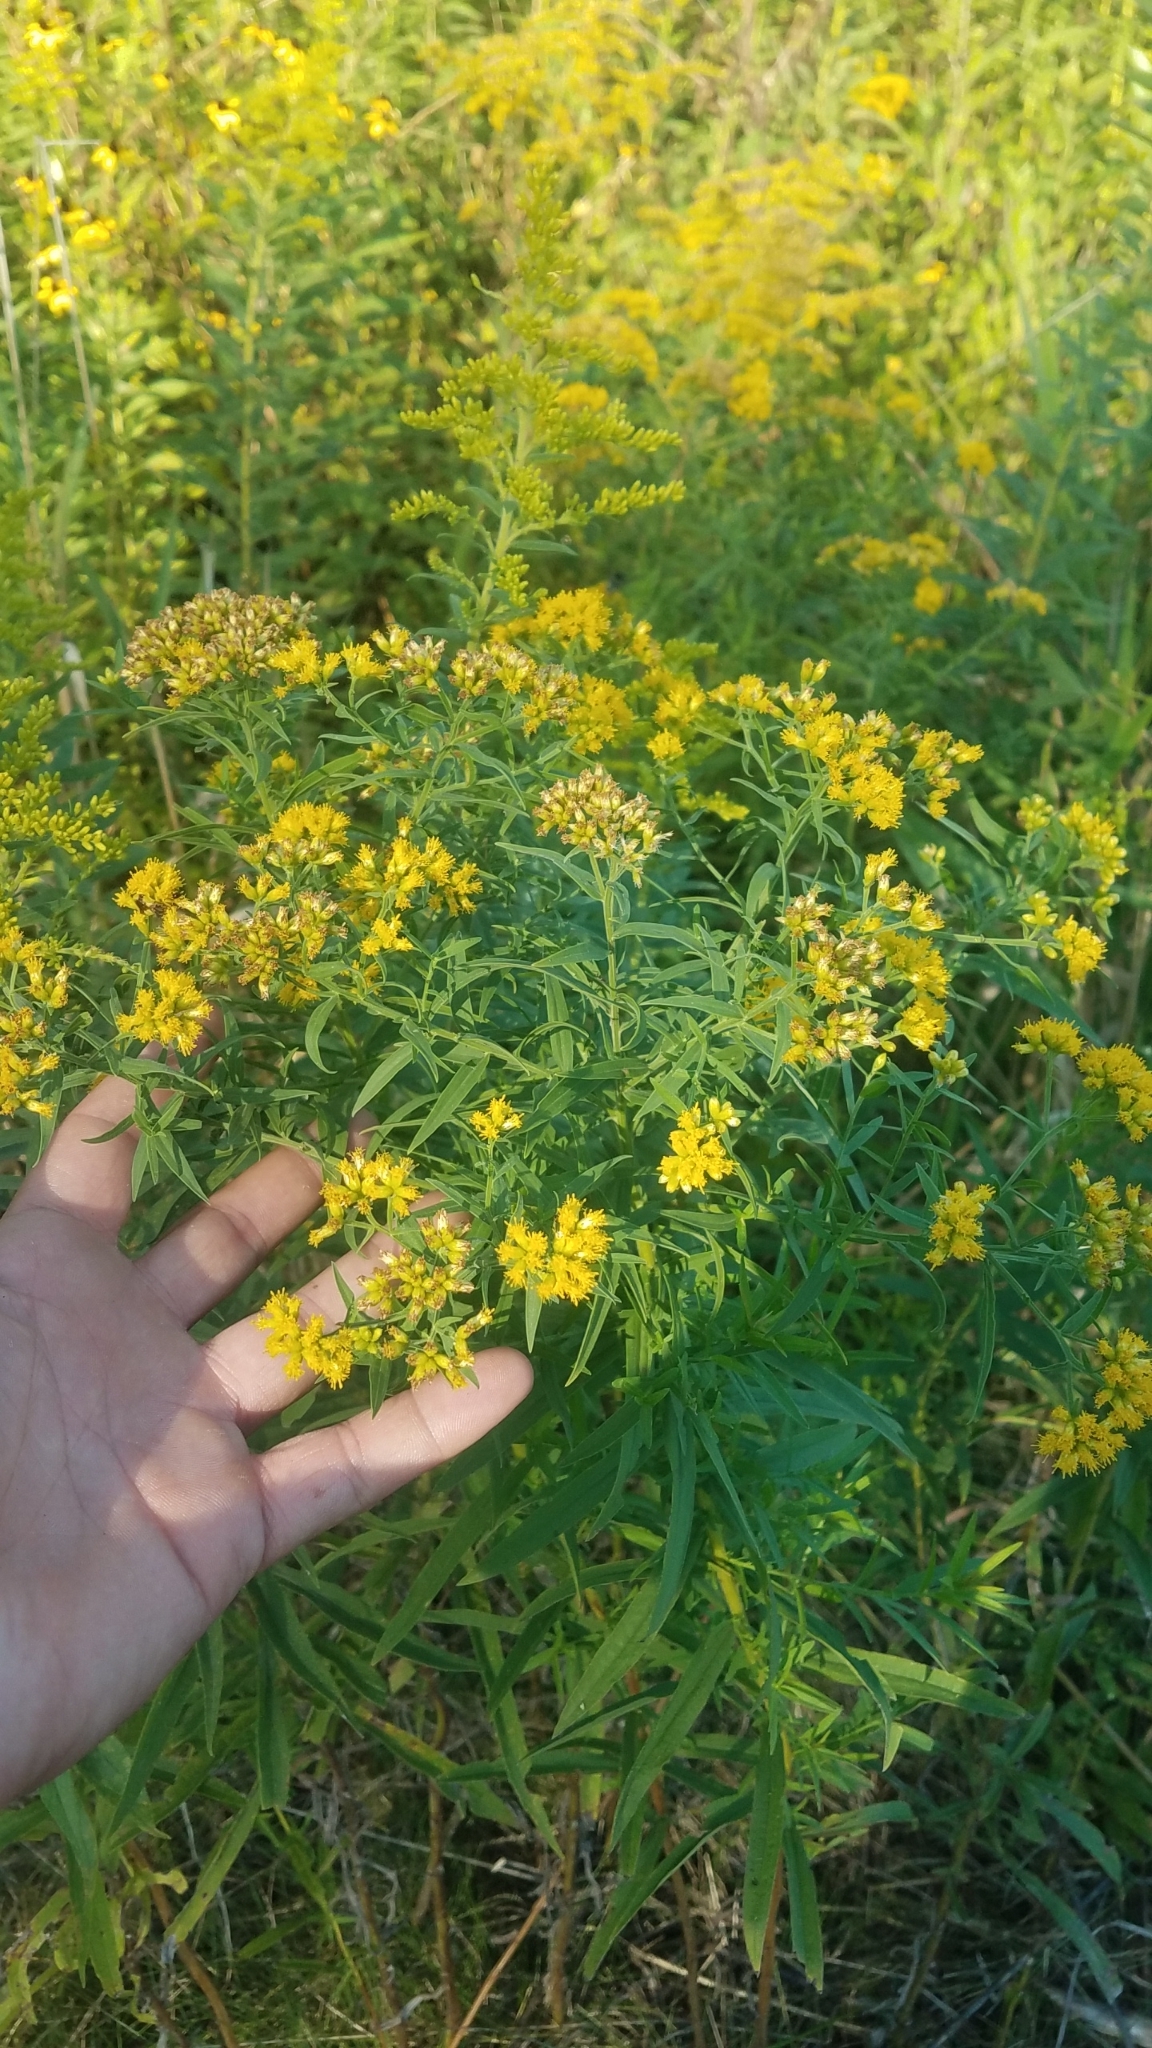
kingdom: Plantae
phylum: Tracheophyta
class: Magnoliopsida
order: Asterales
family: Asteraceae
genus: Euthamia
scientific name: Euthamia graminifolia
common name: Common goldentop
